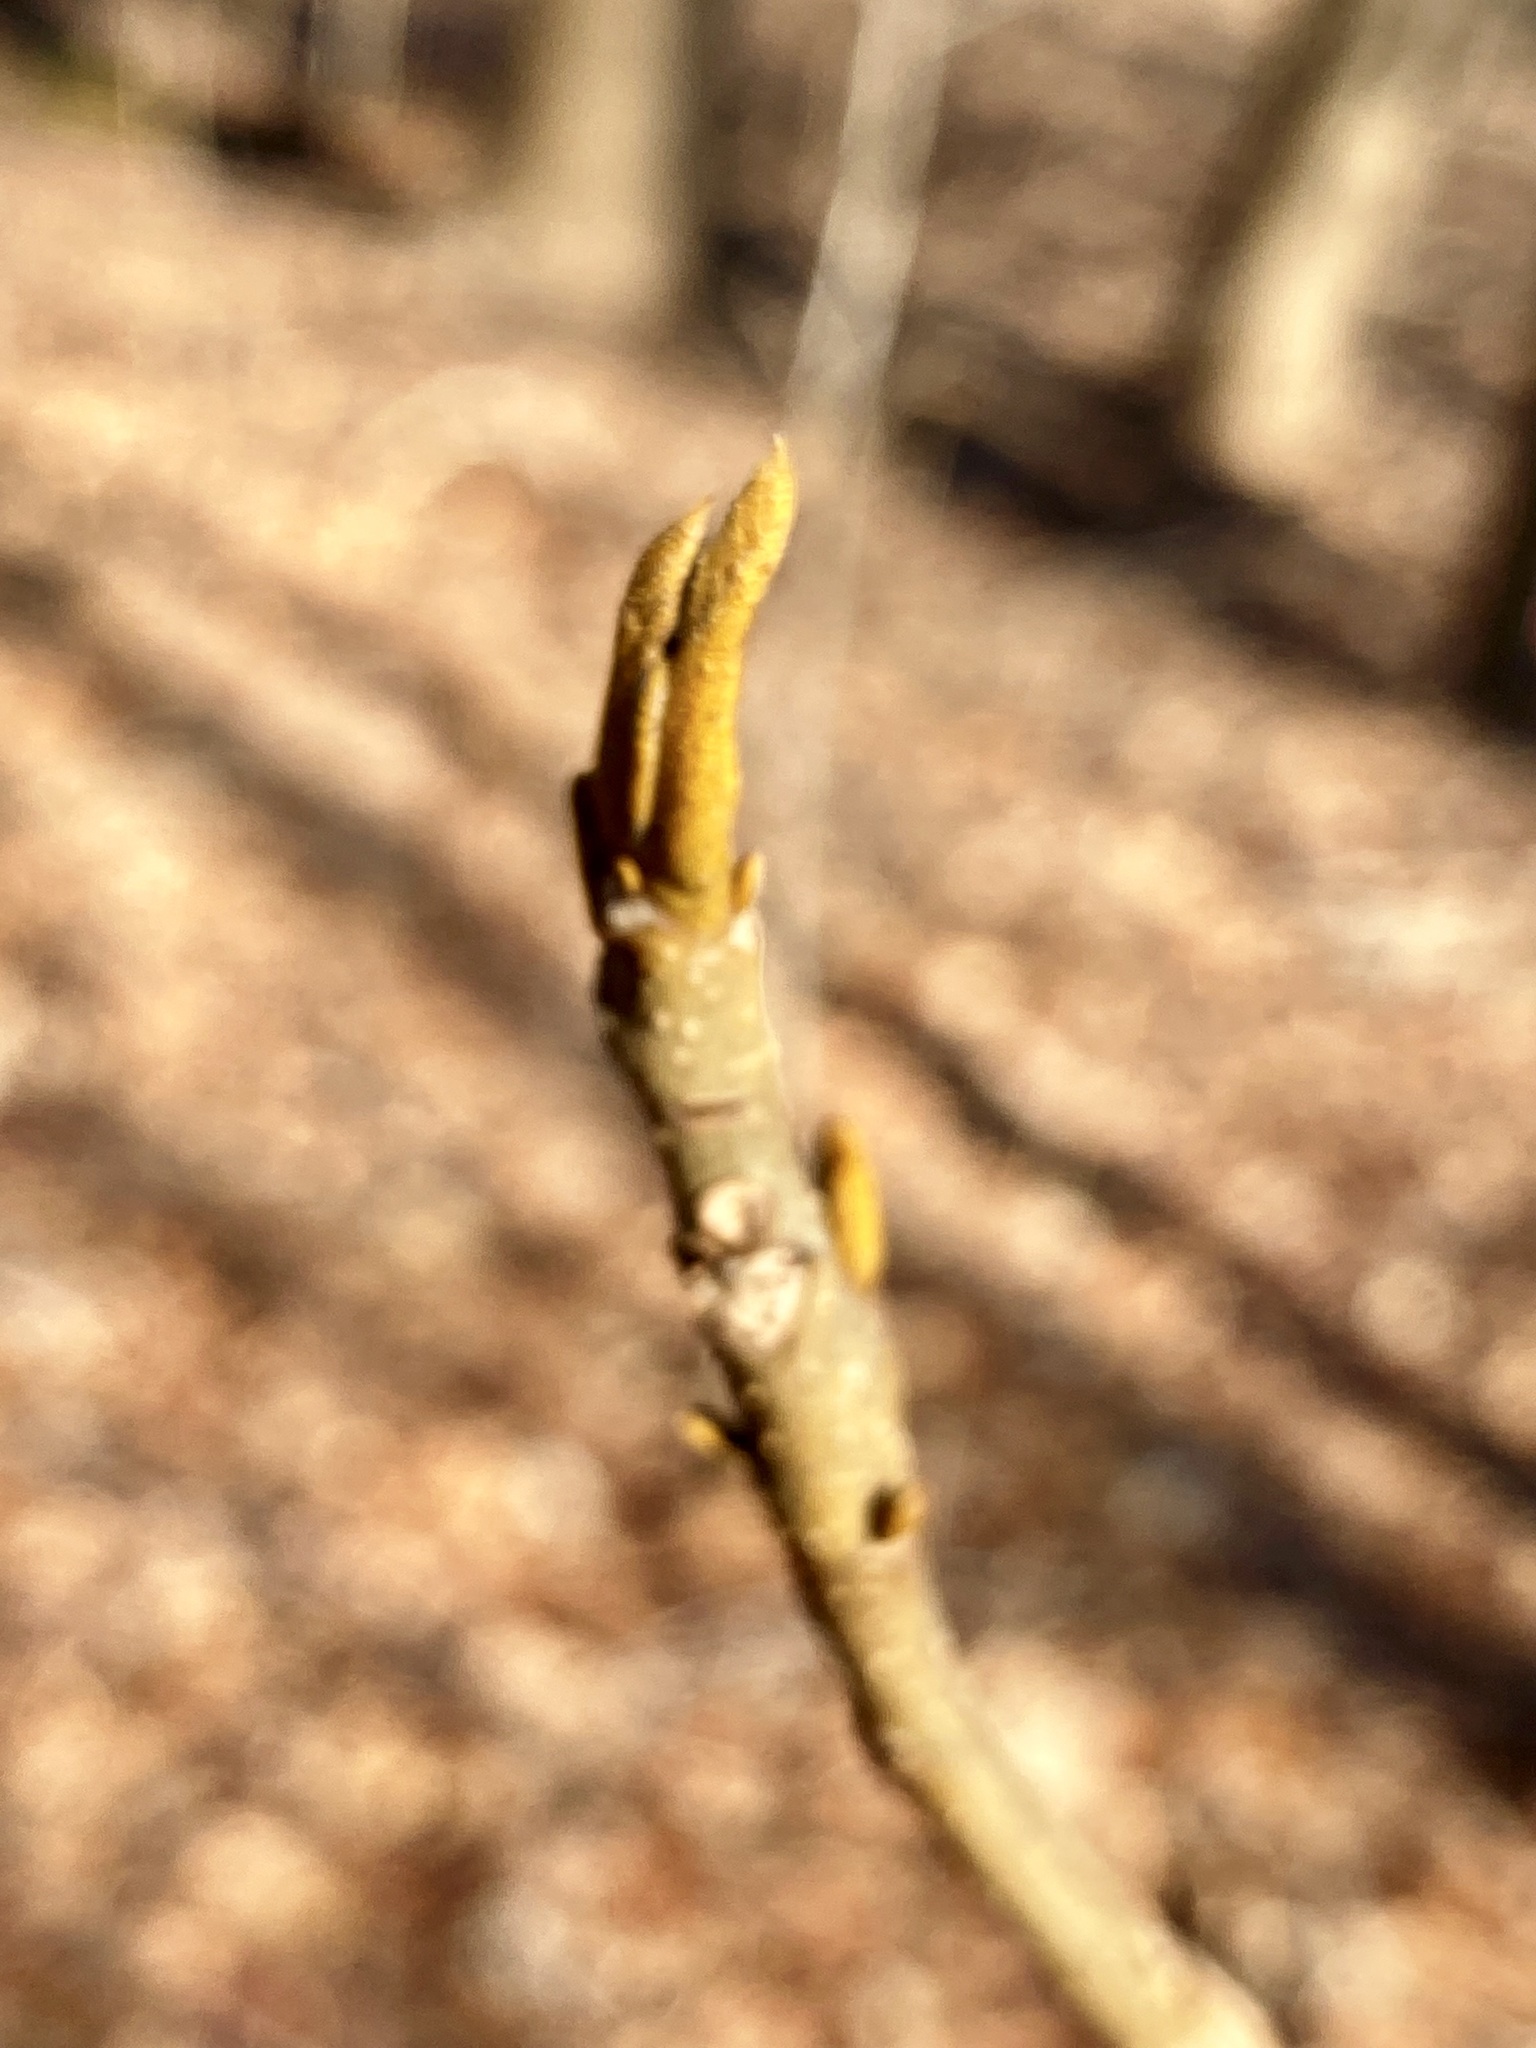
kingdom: Plantae
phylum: Tracheophyta
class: Magnoliopsida
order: Fagales
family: Juglandaceae
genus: Carya
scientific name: Carya cordiformis
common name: Bitternut hickory
